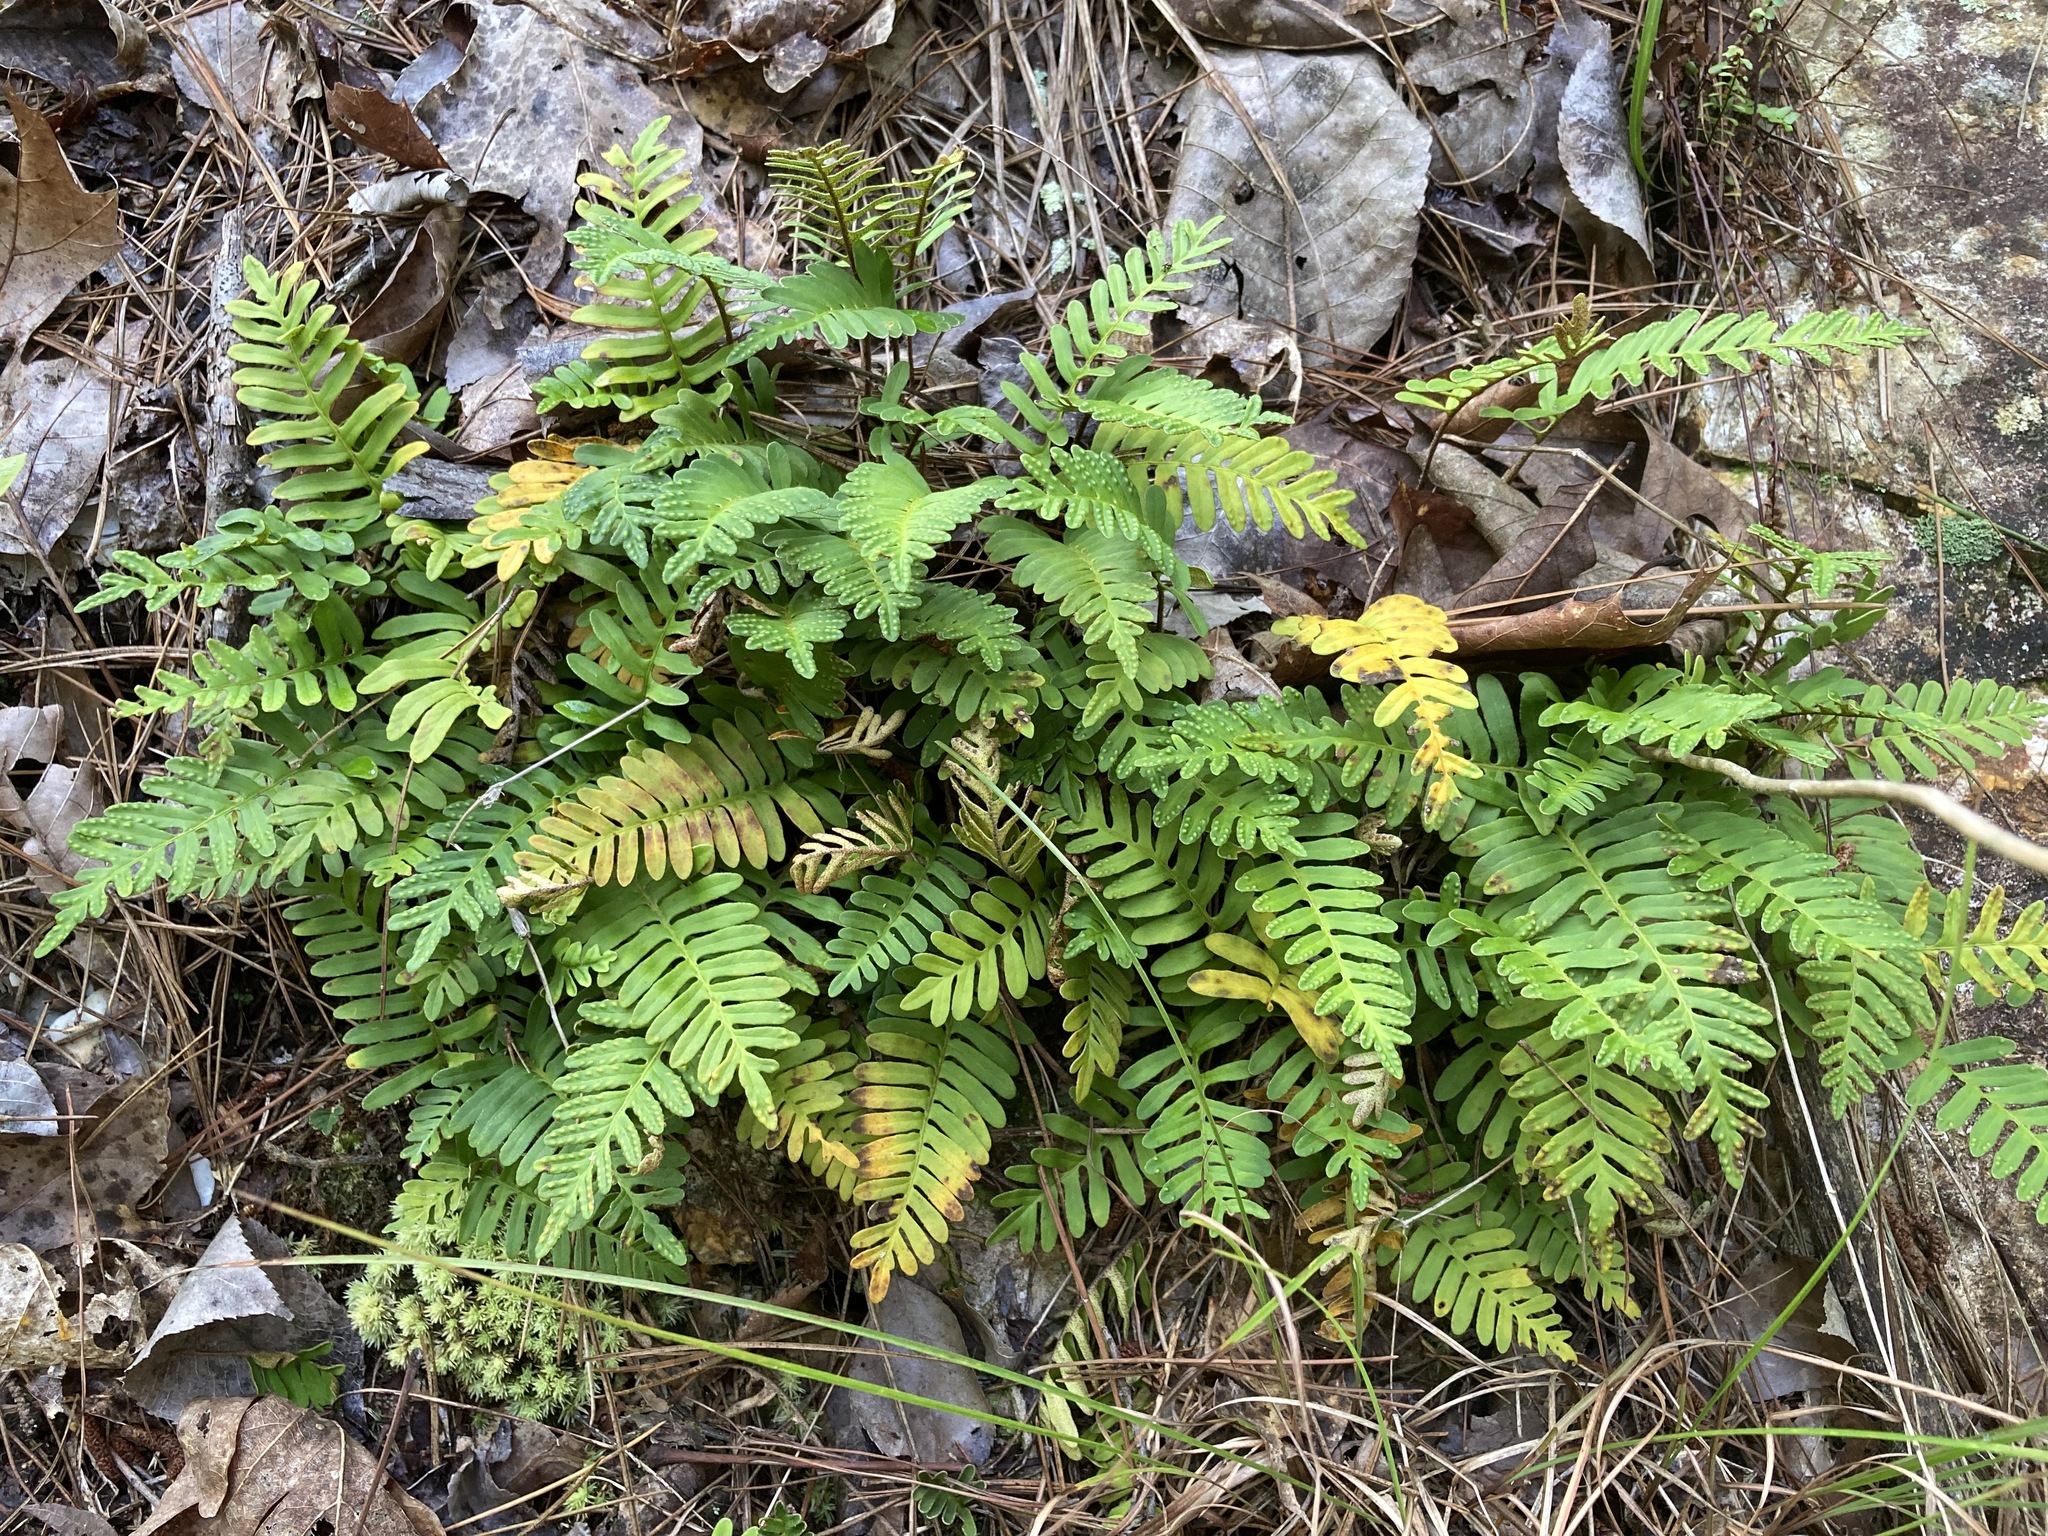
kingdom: Plantae
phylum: Tracheophyta
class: Polypodiopsida
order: Polypodiales
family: Polypodiaceae
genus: Pleopeltis
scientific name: Pleopeltis michauxiana
